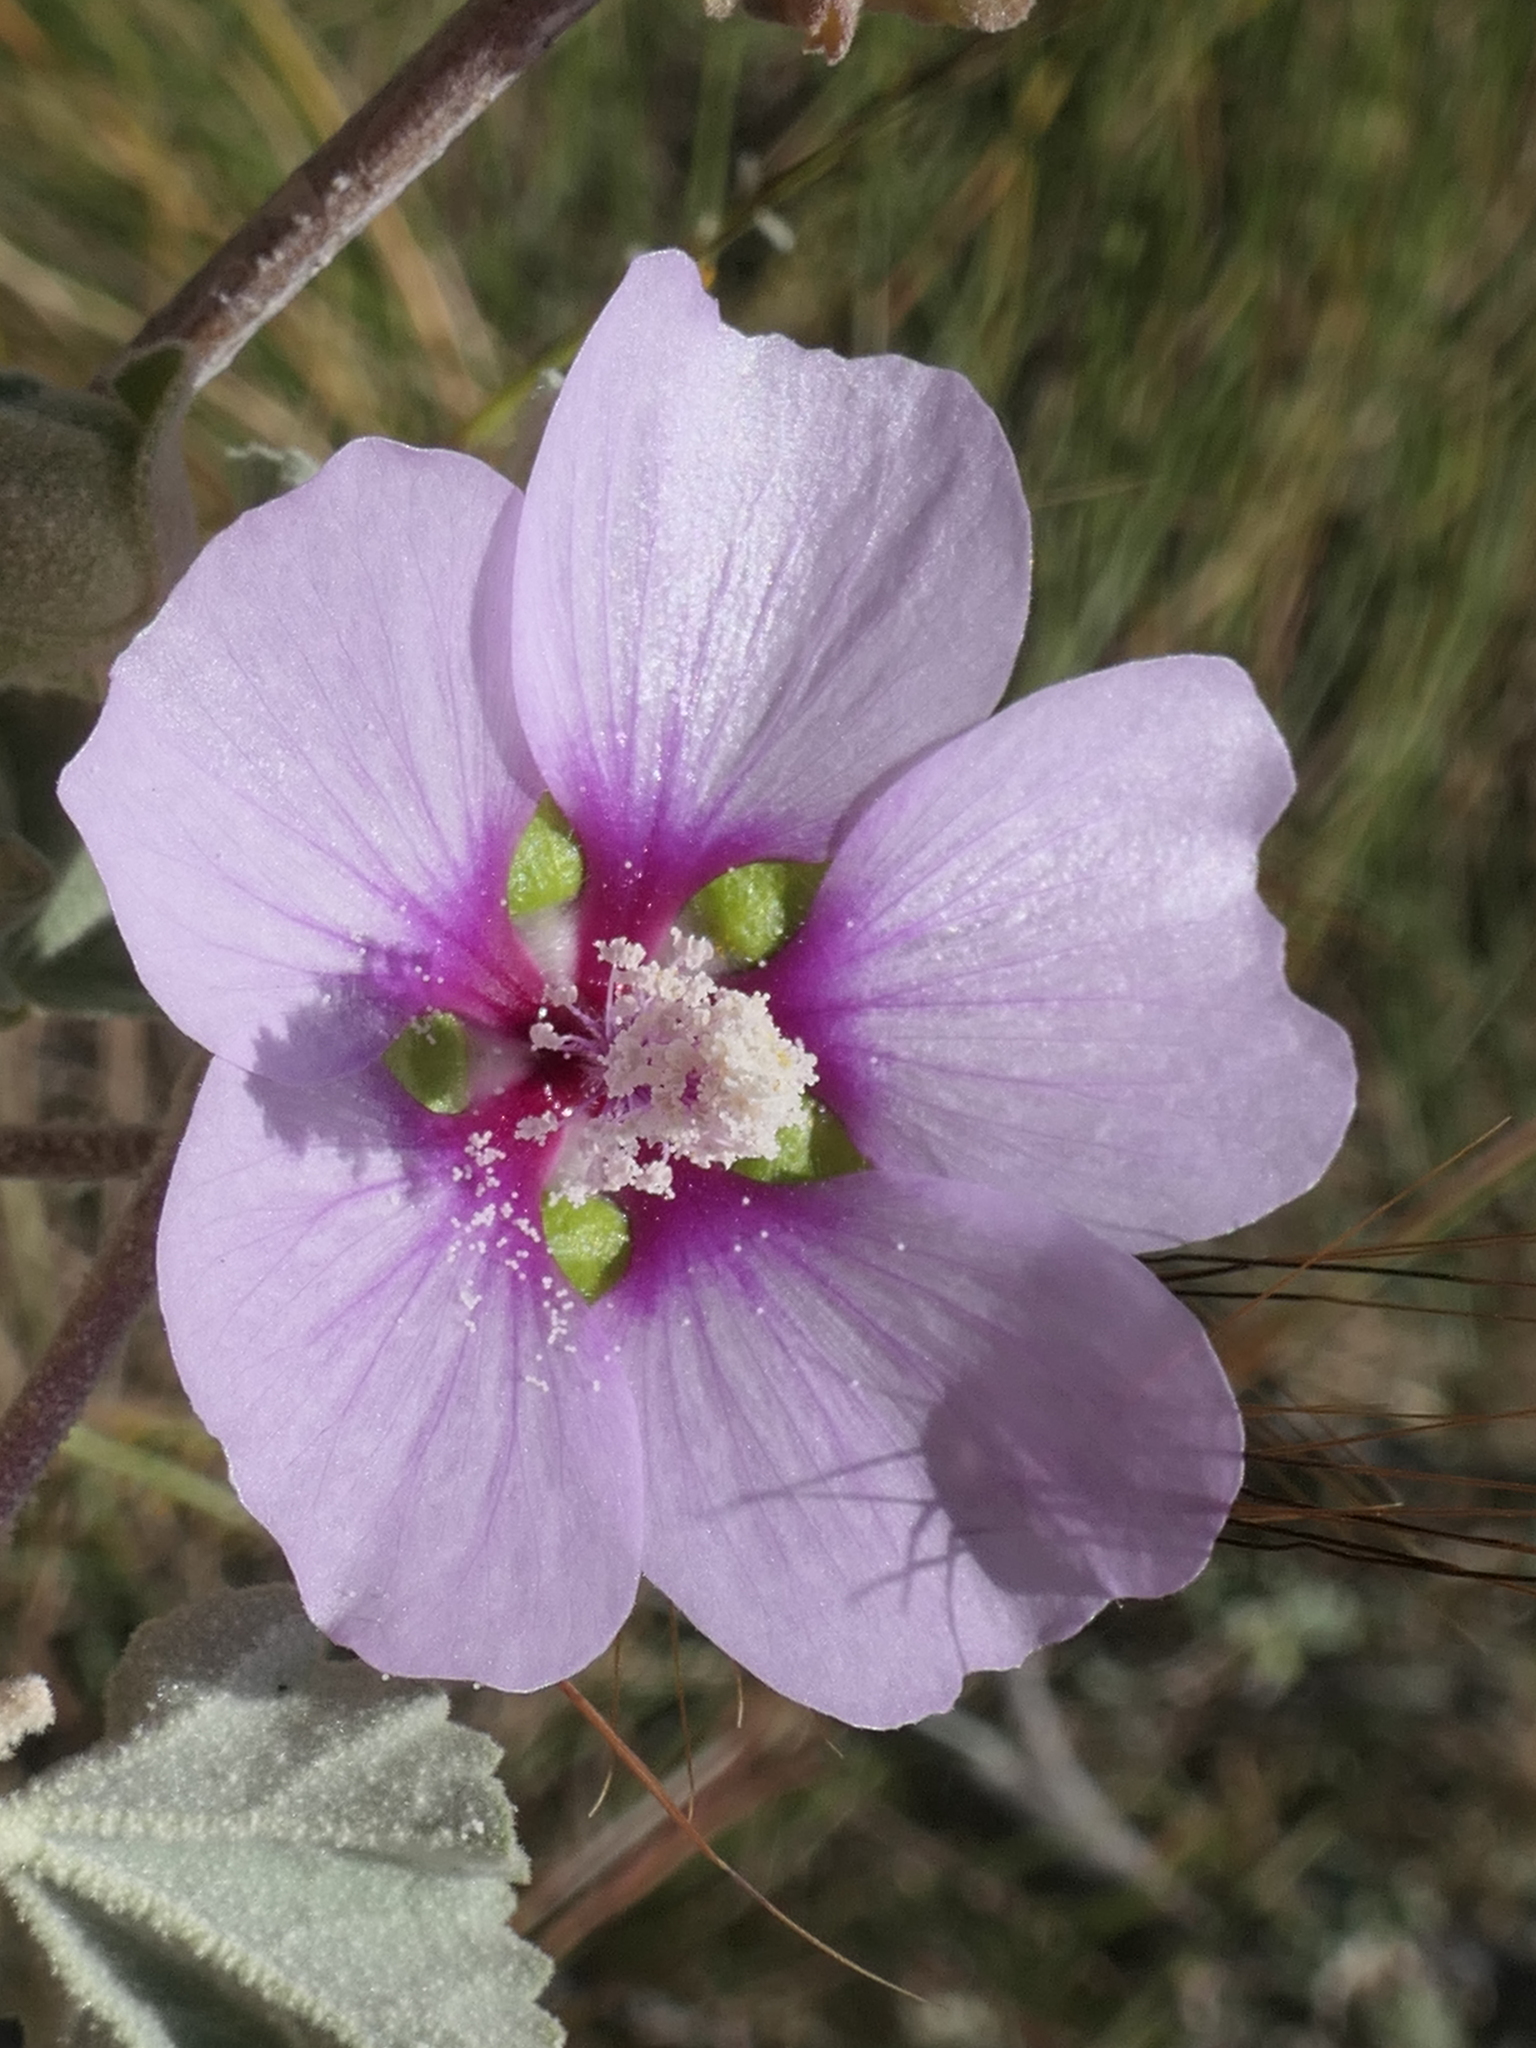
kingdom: Plantae
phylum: Tracheophyta
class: Magnoliopsida
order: Malvales
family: Malvaceae
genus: Malva
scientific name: Malva subovata
